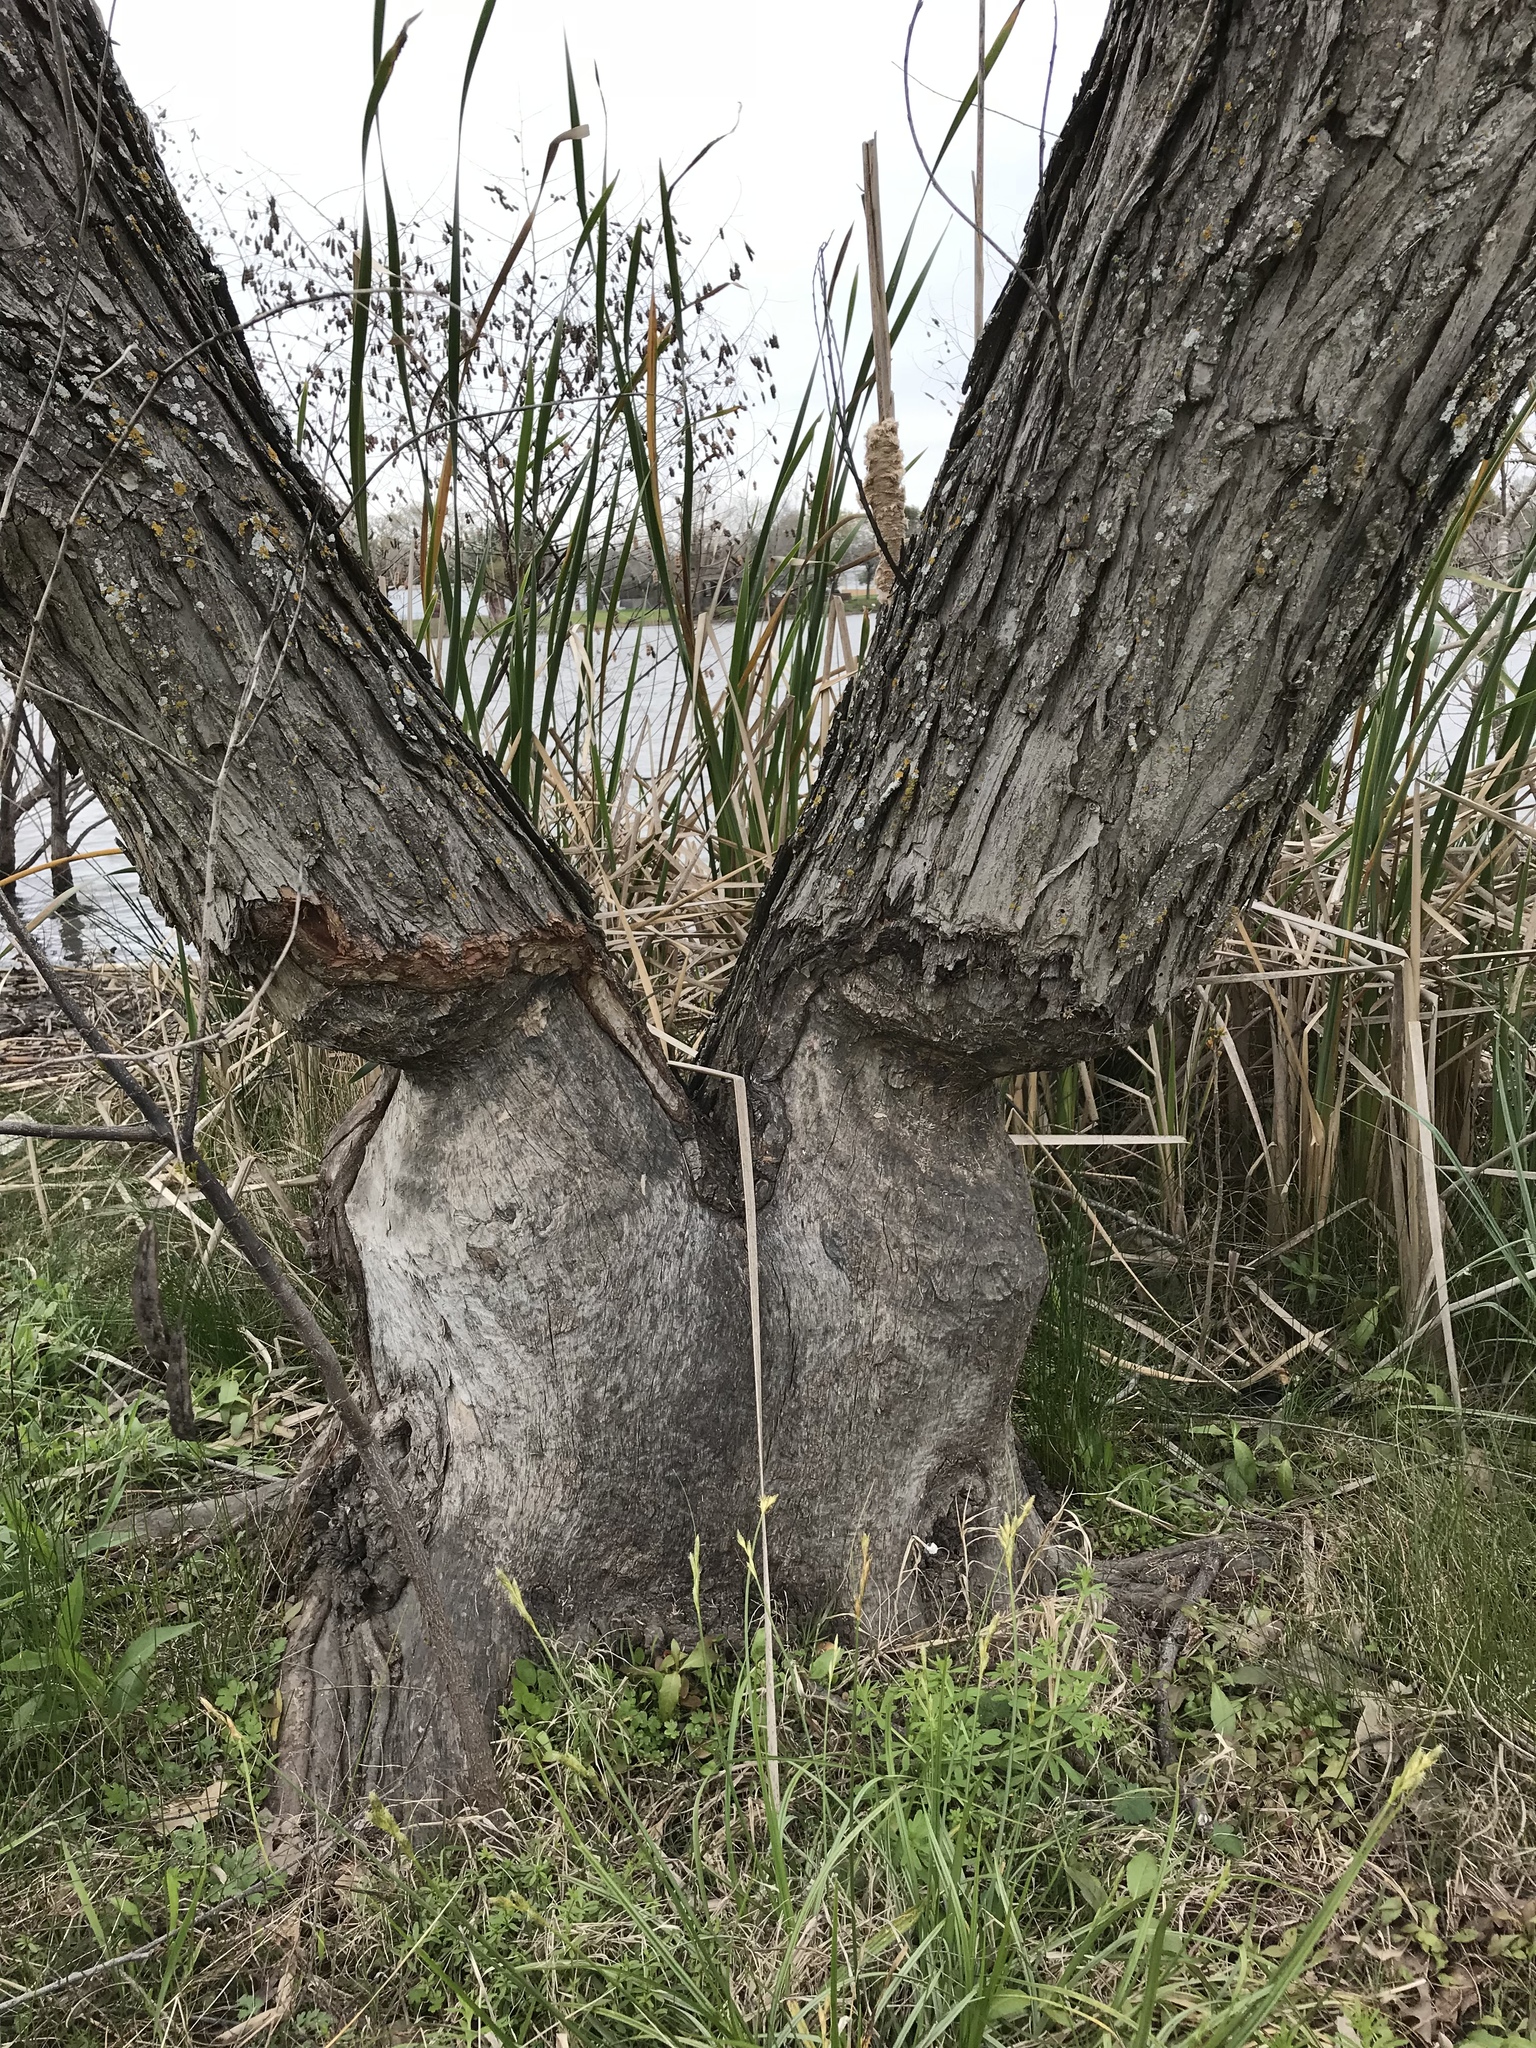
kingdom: Animalia
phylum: Chordata
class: Mammalia
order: Rodentia
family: Castoridae
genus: Castor
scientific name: Castor canadensis
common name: American beaver
